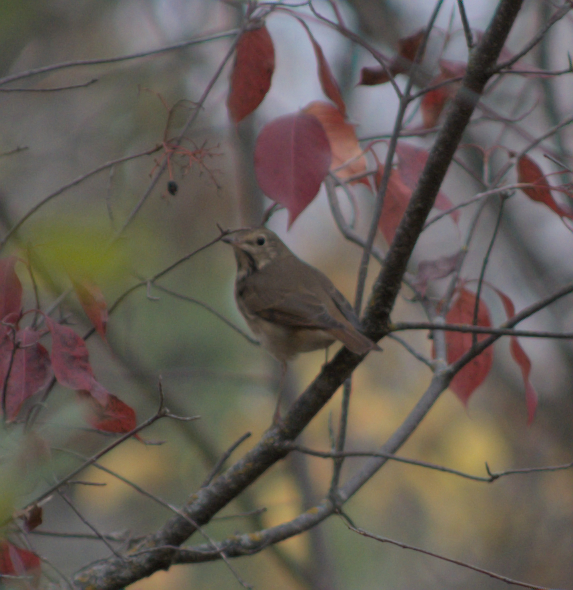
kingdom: Animalia
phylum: Chordata
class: Aves
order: Passeriformes
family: Turdidae
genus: Catharus
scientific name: Catharus guttatus
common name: Hermit thrush
